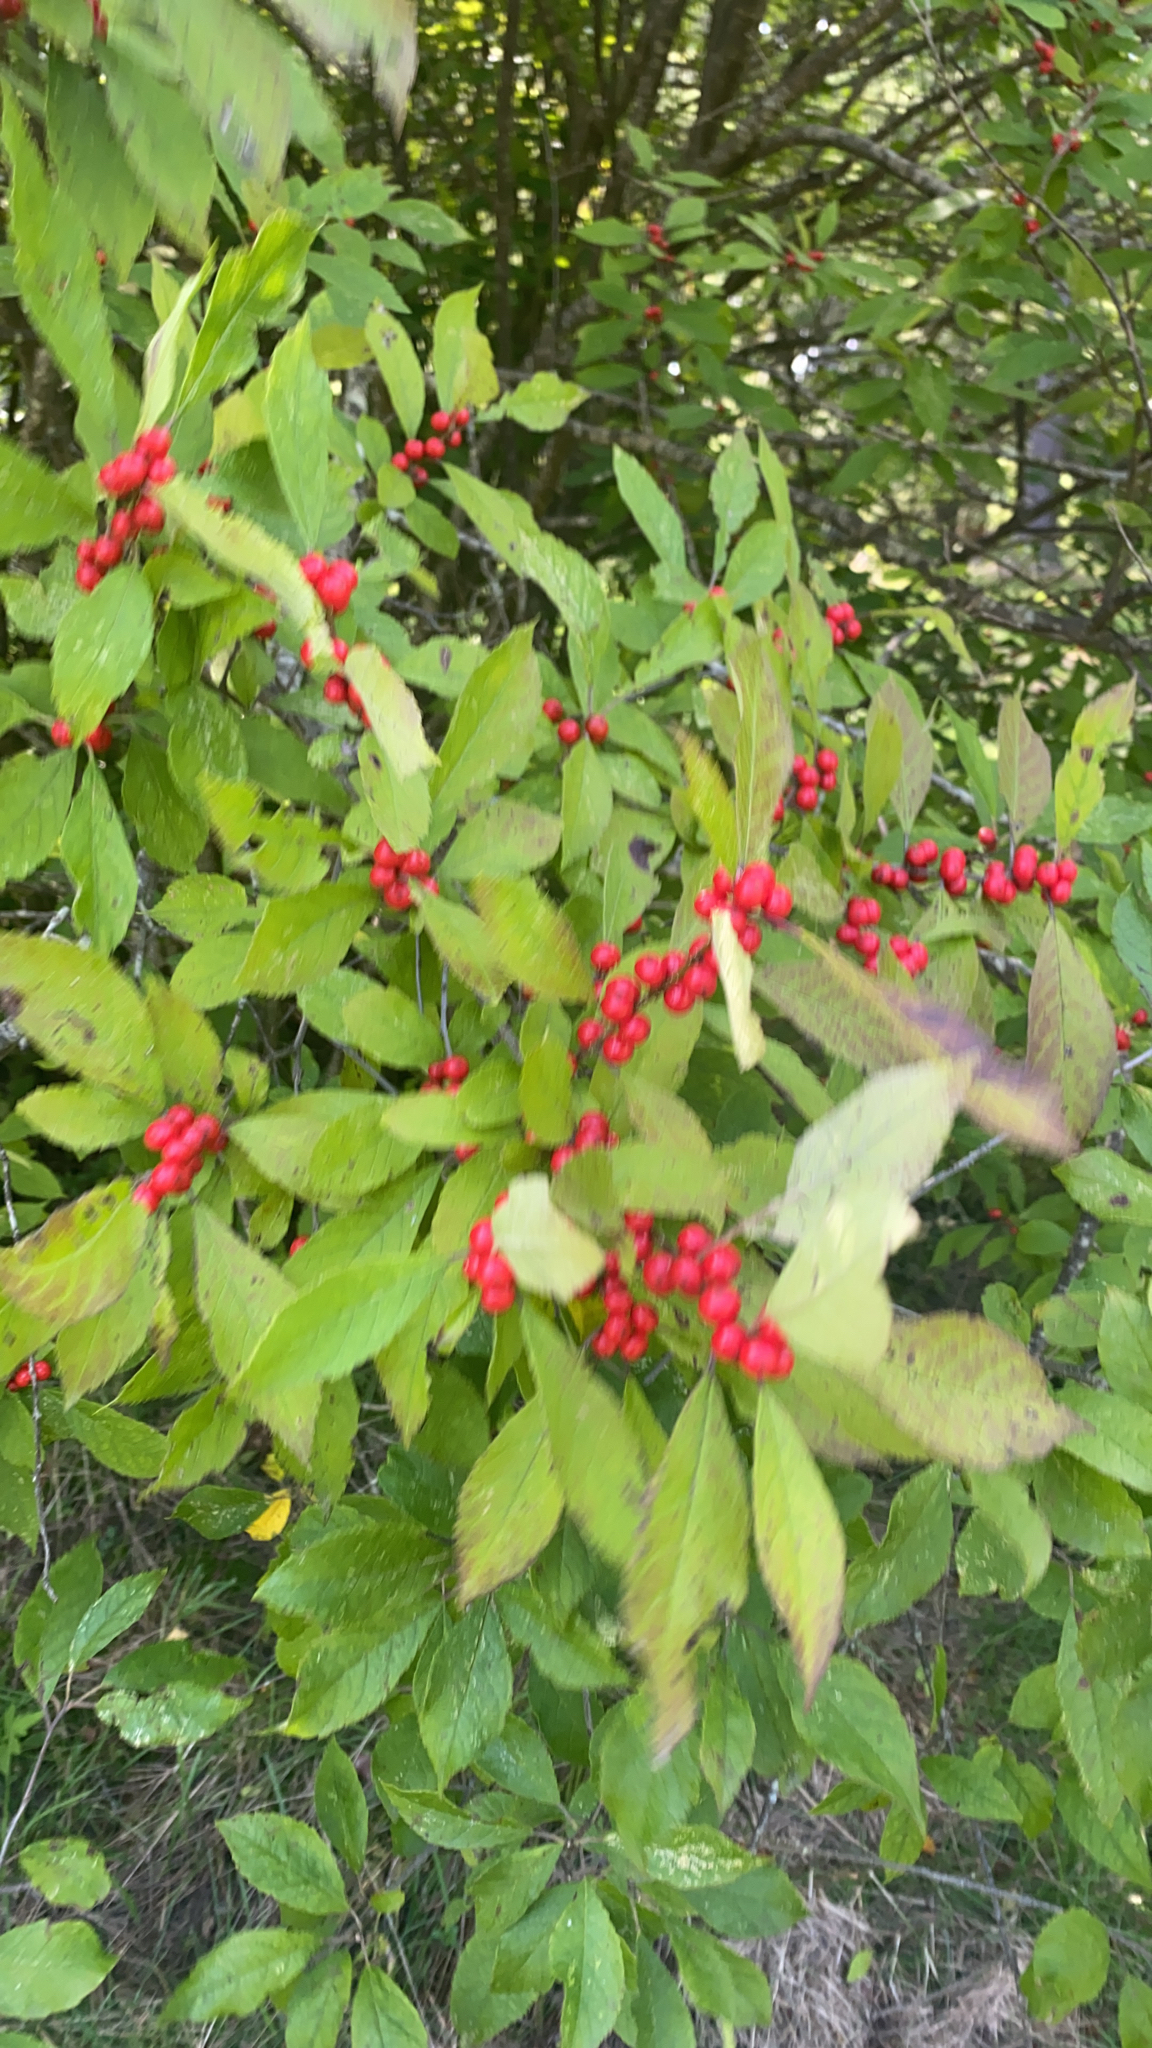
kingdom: Plantae
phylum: Tracheophyta
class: Magnoliopsida
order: Aquifoliales
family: Aquifoliaceae
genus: Ilex
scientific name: Ilex verticillata
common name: Virginia winterberry
